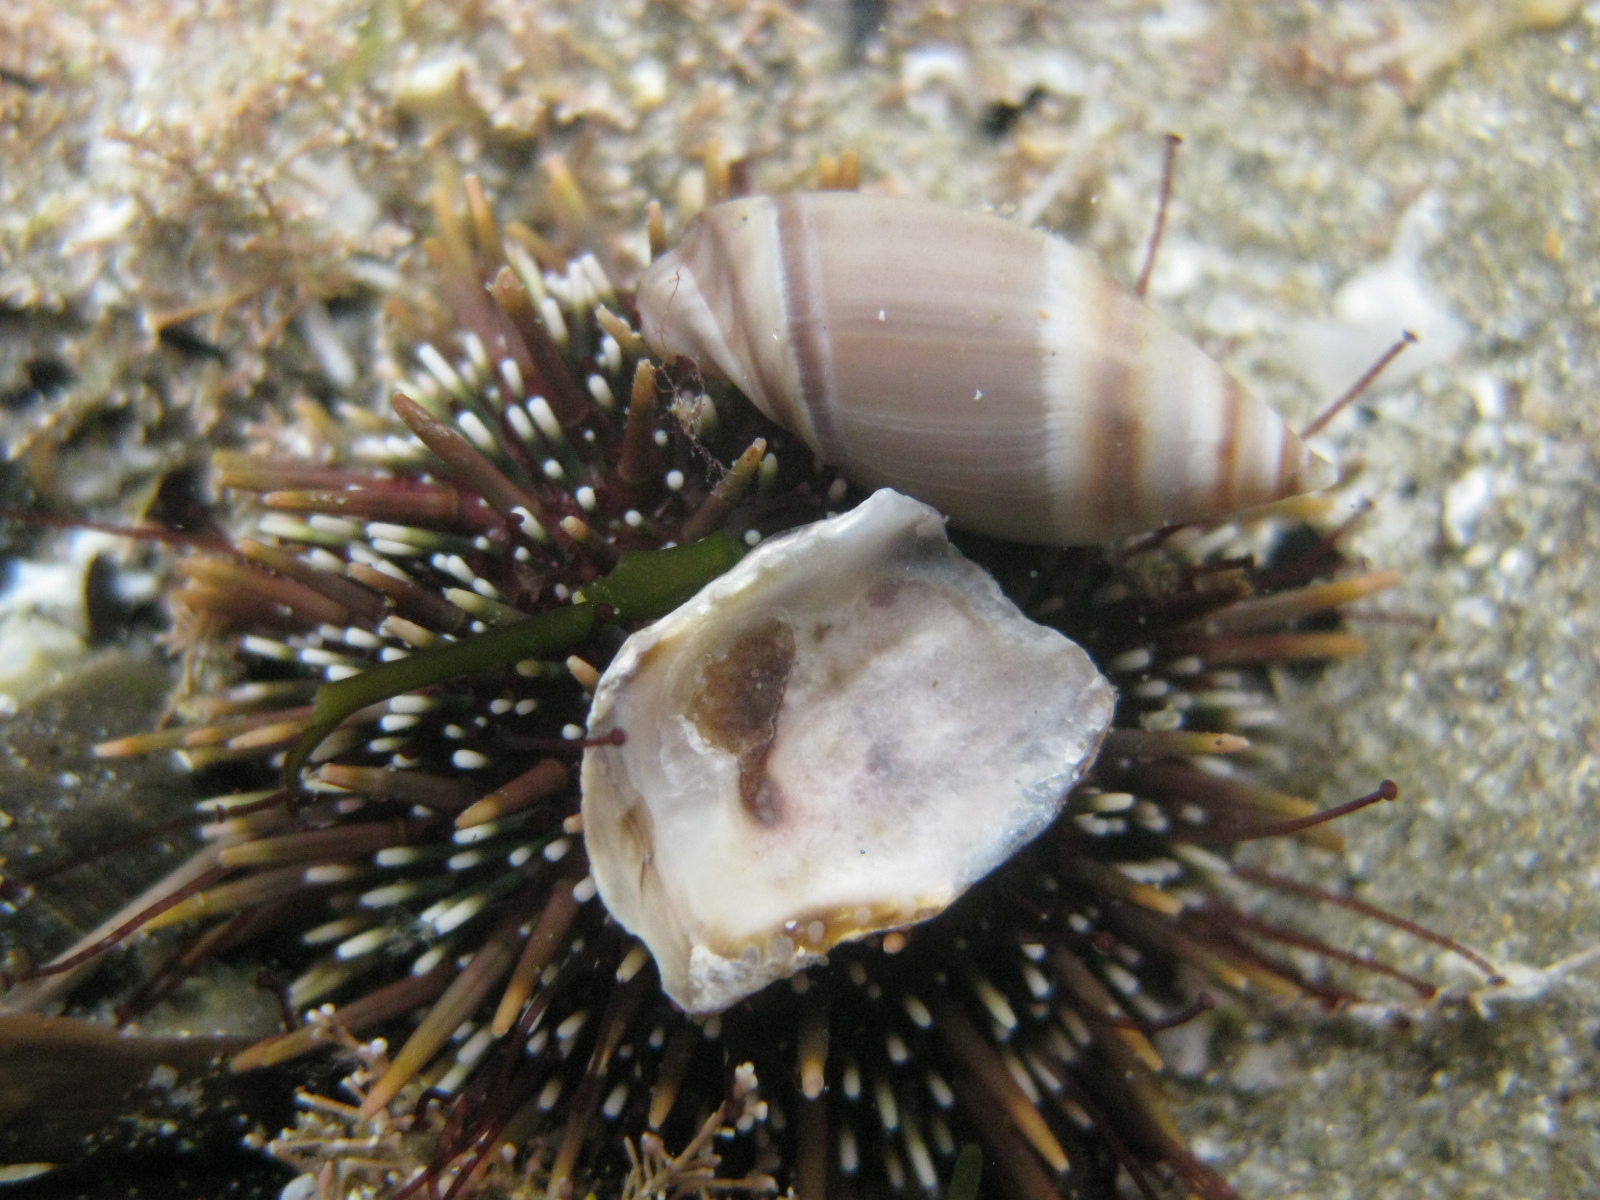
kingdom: Animalia
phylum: Echinodermata
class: Echinoidea
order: Camarodonta
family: Echinometridae
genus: Evechinus
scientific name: Evechinus chloroticus
